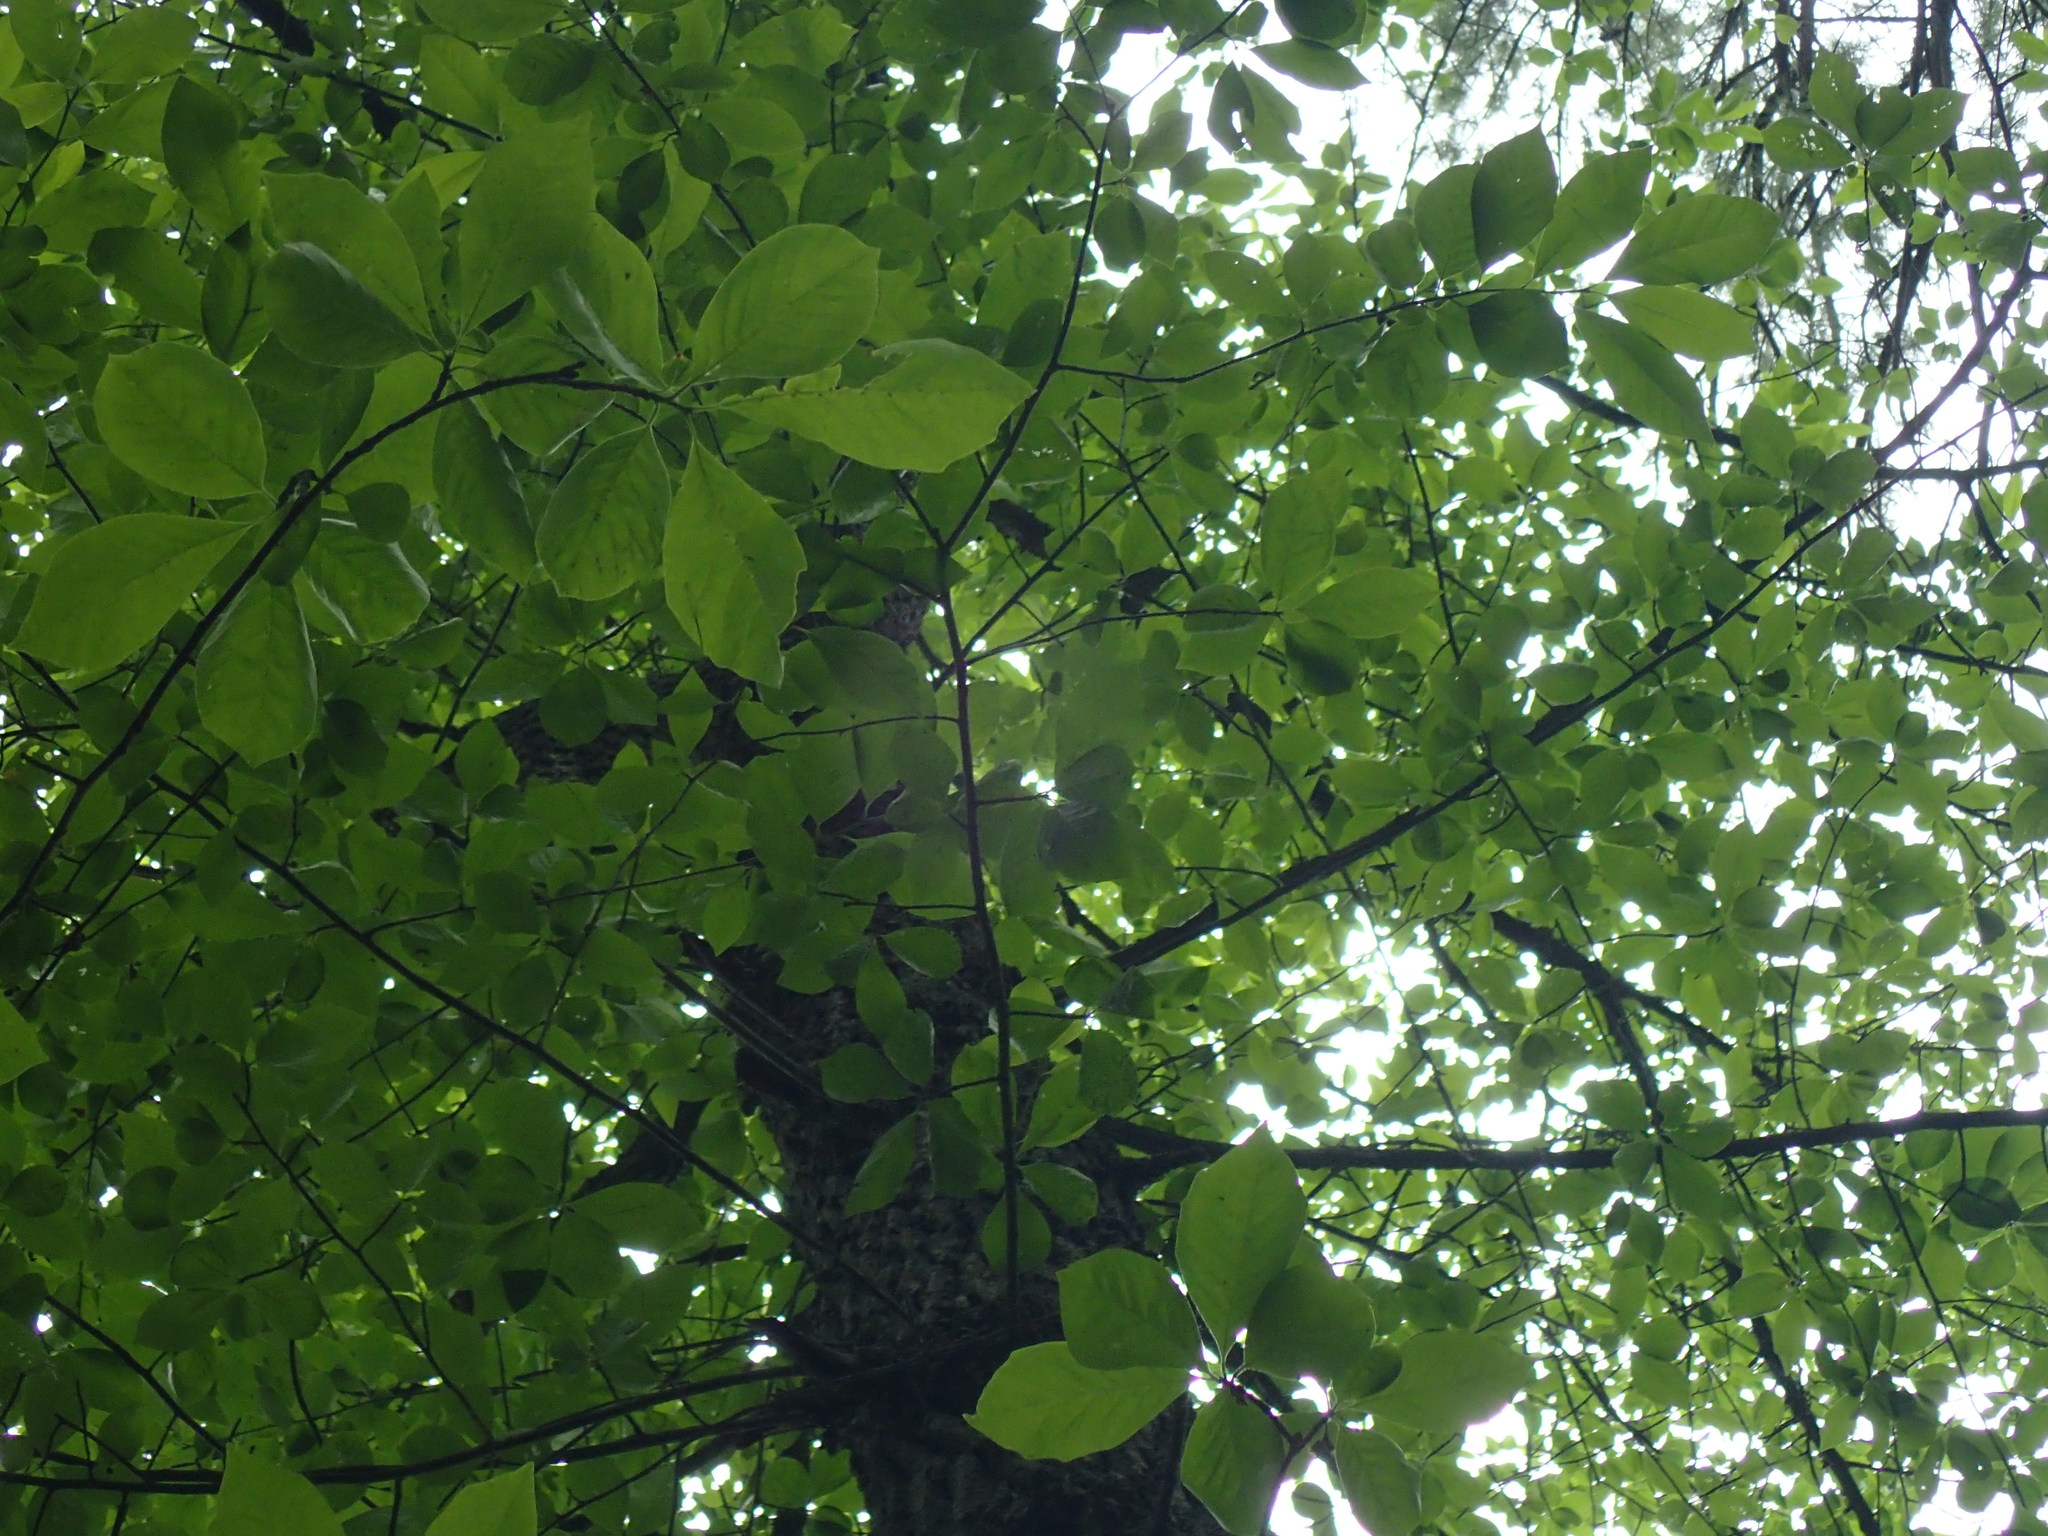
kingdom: Plantae
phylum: Tracheophyta
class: Magnoliopsida
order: Cornales
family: Nyssaceae
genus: Nyssa
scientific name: Nyssa sylvatica
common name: Black tupelo
